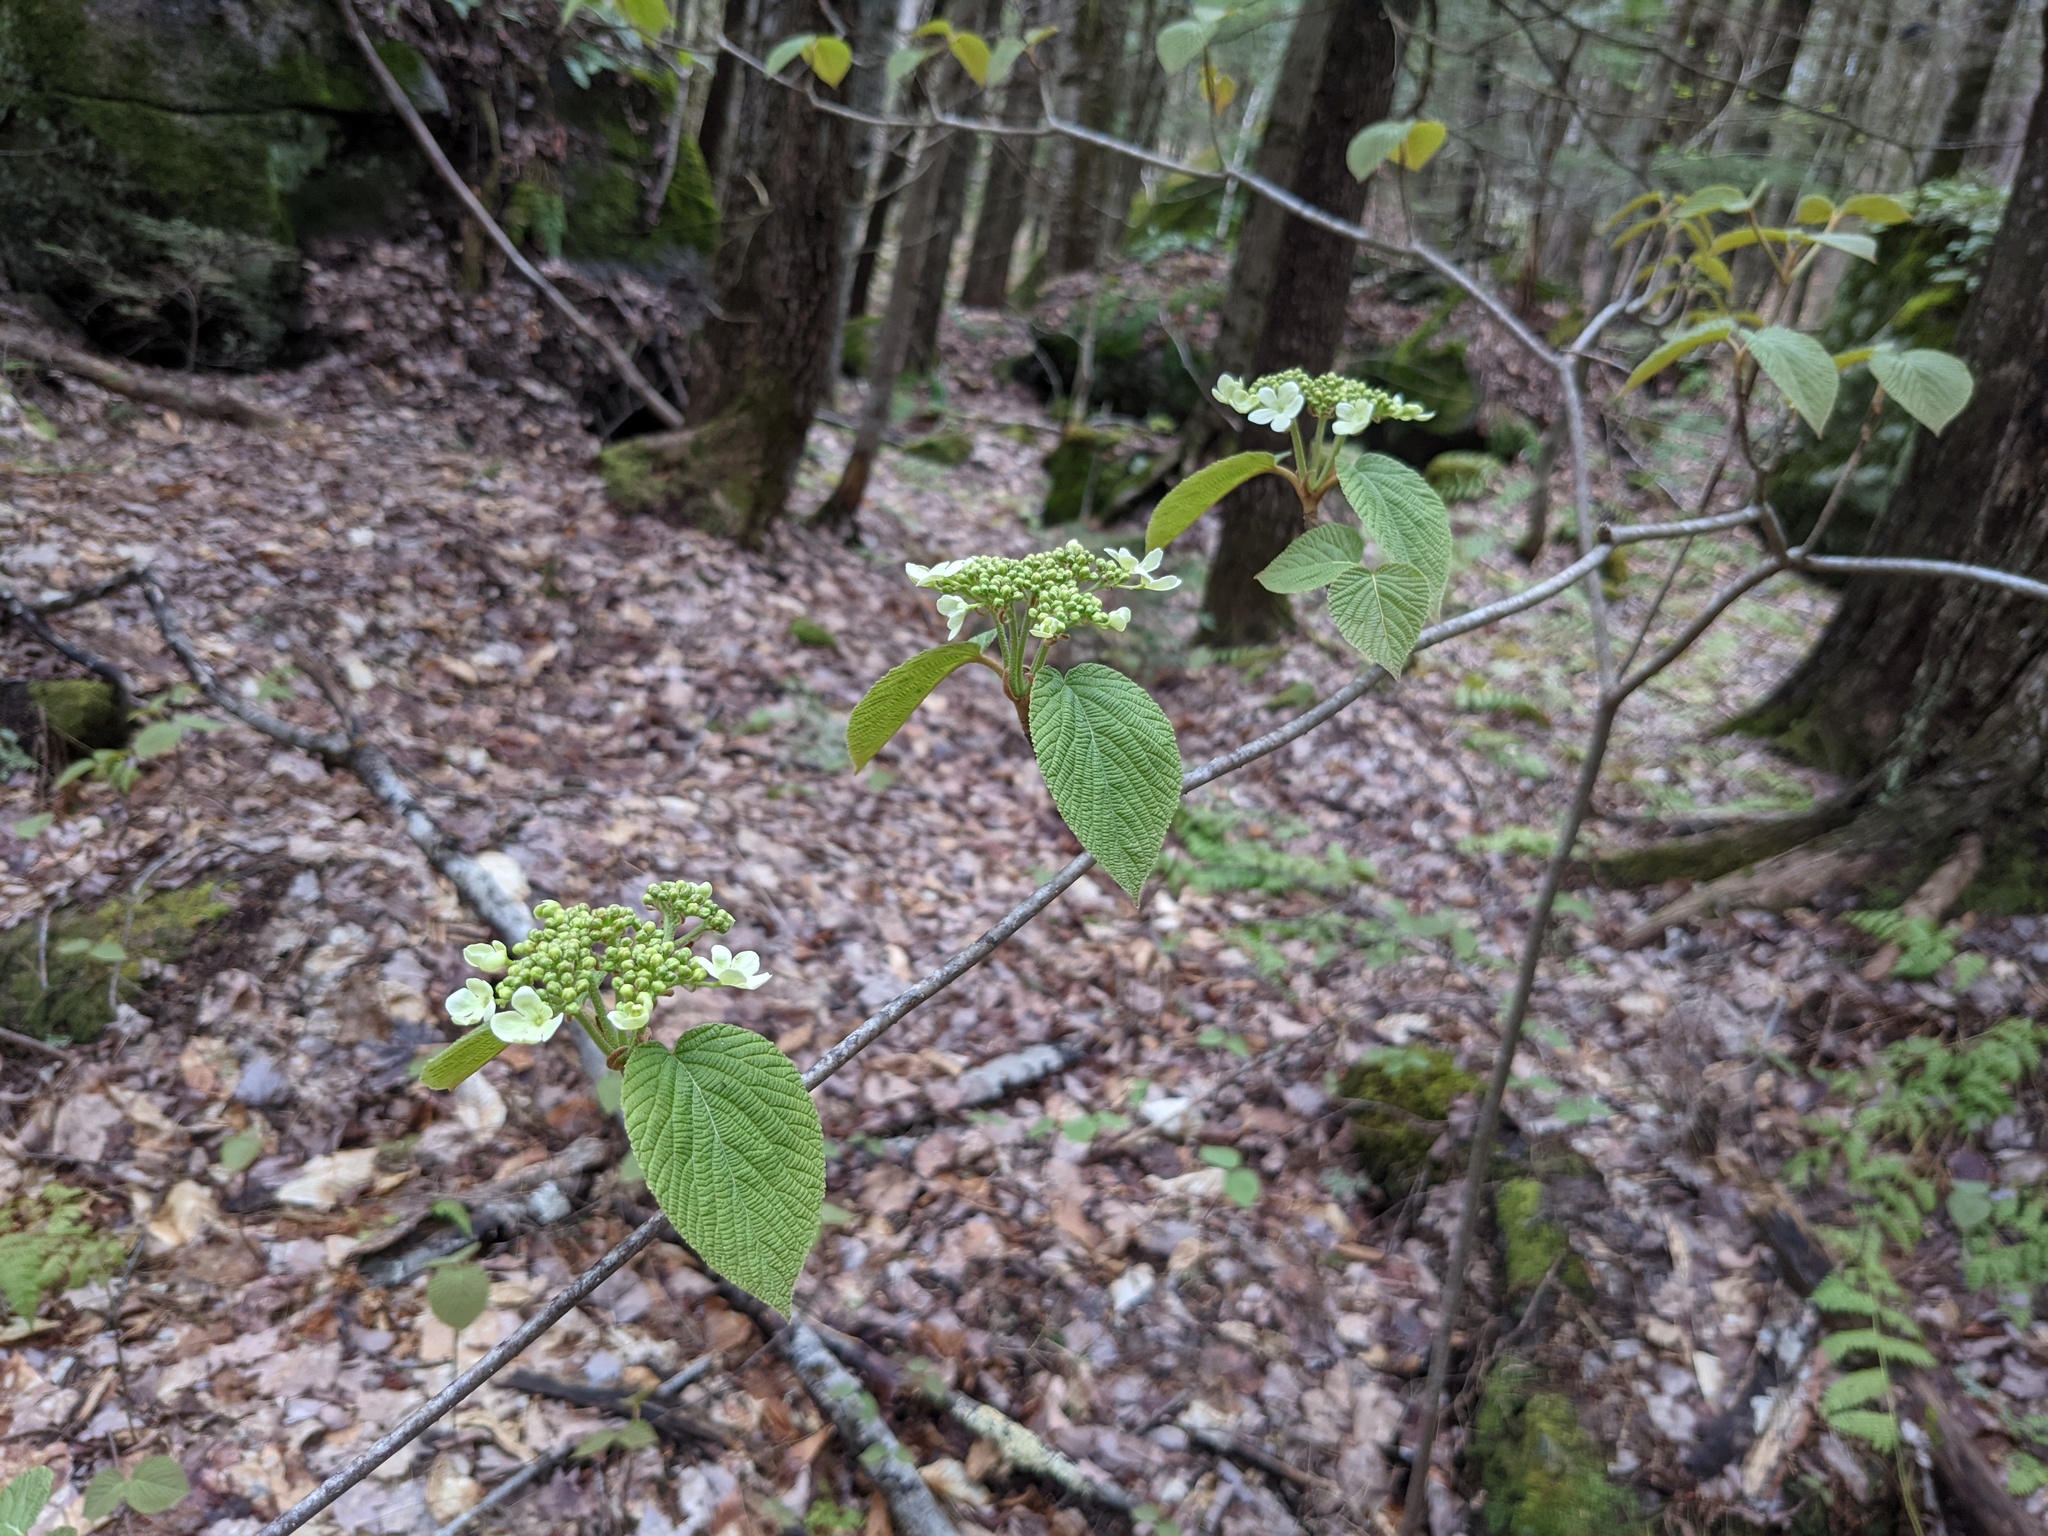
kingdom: Plantae
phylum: Tracheophyta
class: Magnoliopsida
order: Dipsacales
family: Viburnaceae
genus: Viburnum
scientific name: Viburnum lantanoides
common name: Hobblebush
